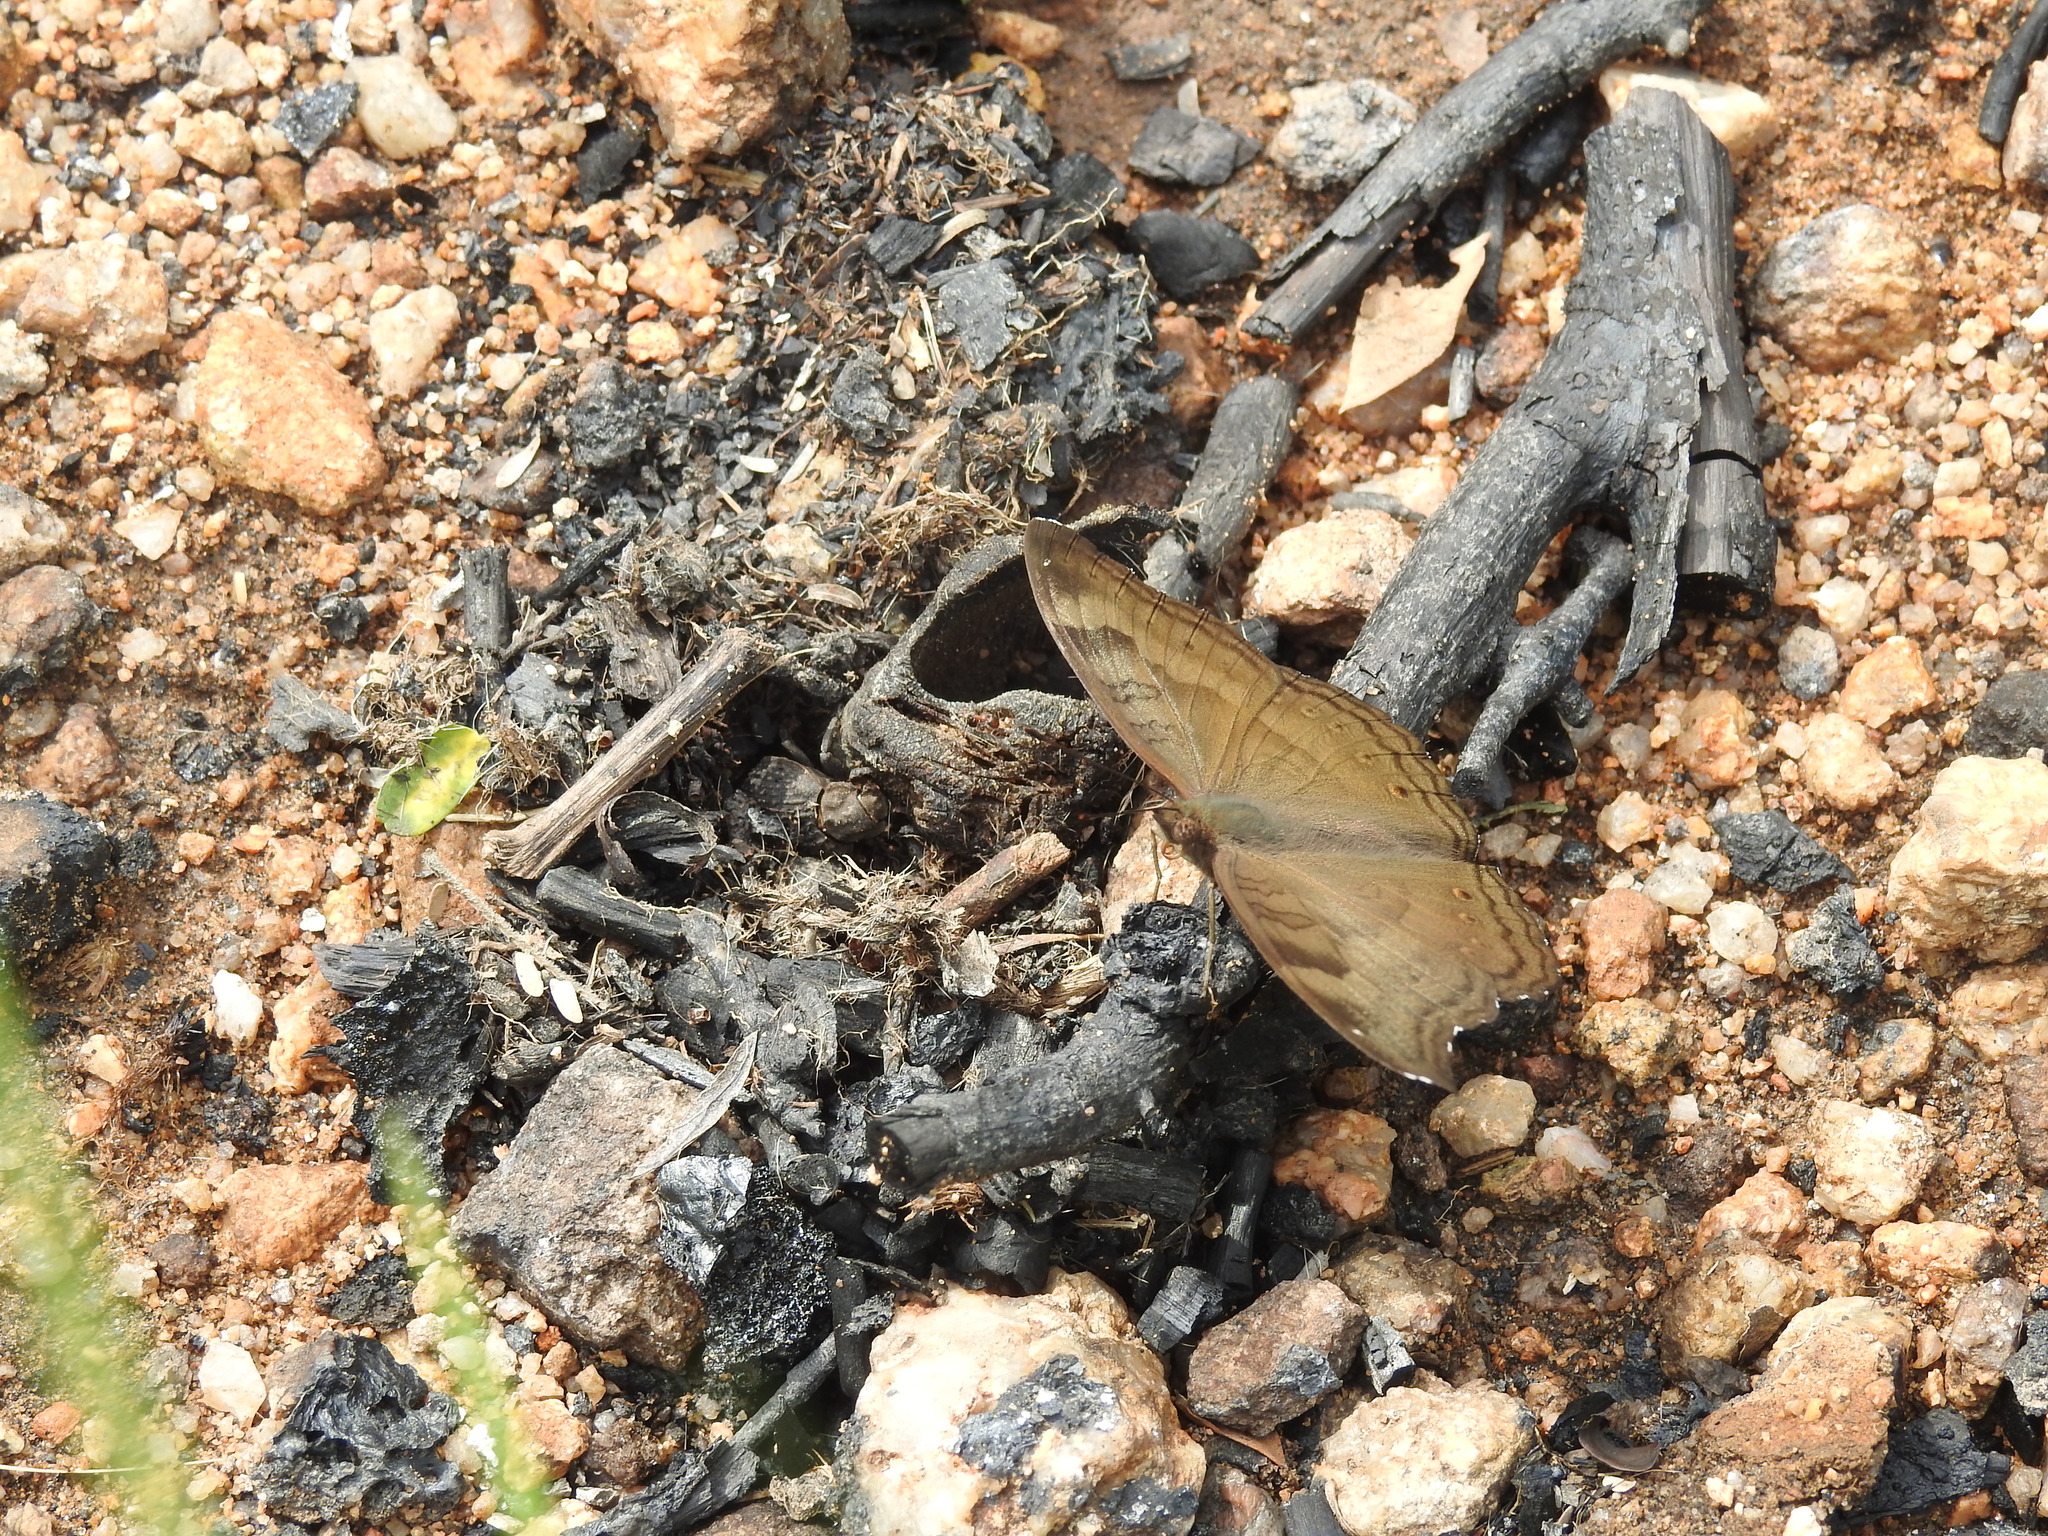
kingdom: Animalia
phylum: Arthropoda
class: Insecta
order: Lepidoptera
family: Nymphalidae
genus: Junonia
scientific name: Junonia iphita
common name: Chocolate pansy
